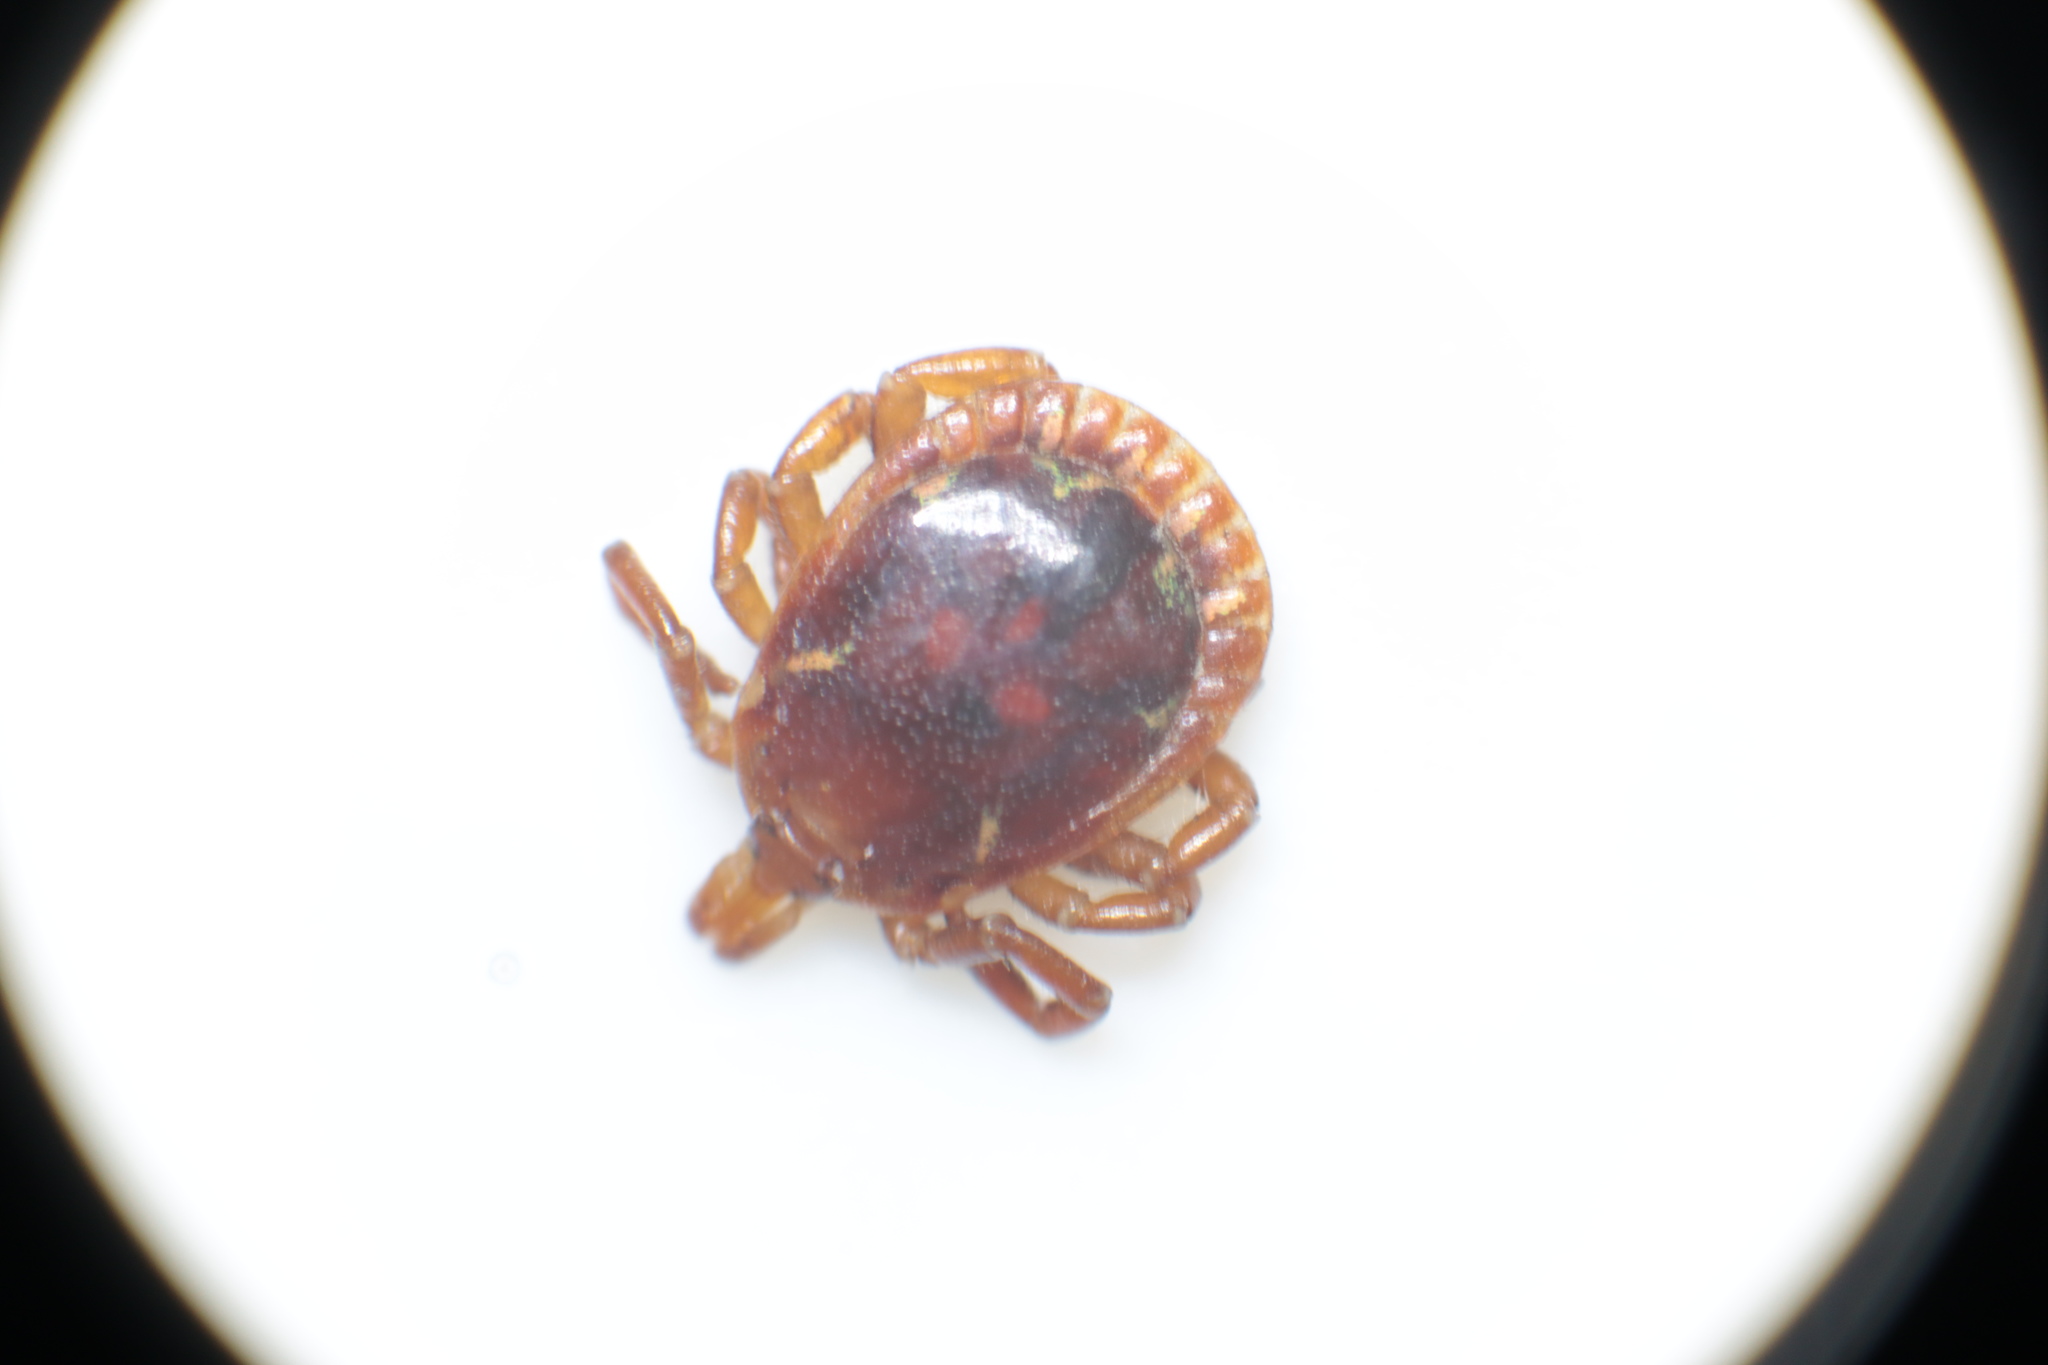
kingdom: Animalia
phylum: Arthropoda
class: Arachnida
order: Ixodida
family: Ixodidae
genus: Amblyomma
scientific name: Amblyomma americanum
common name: Lone star tick
